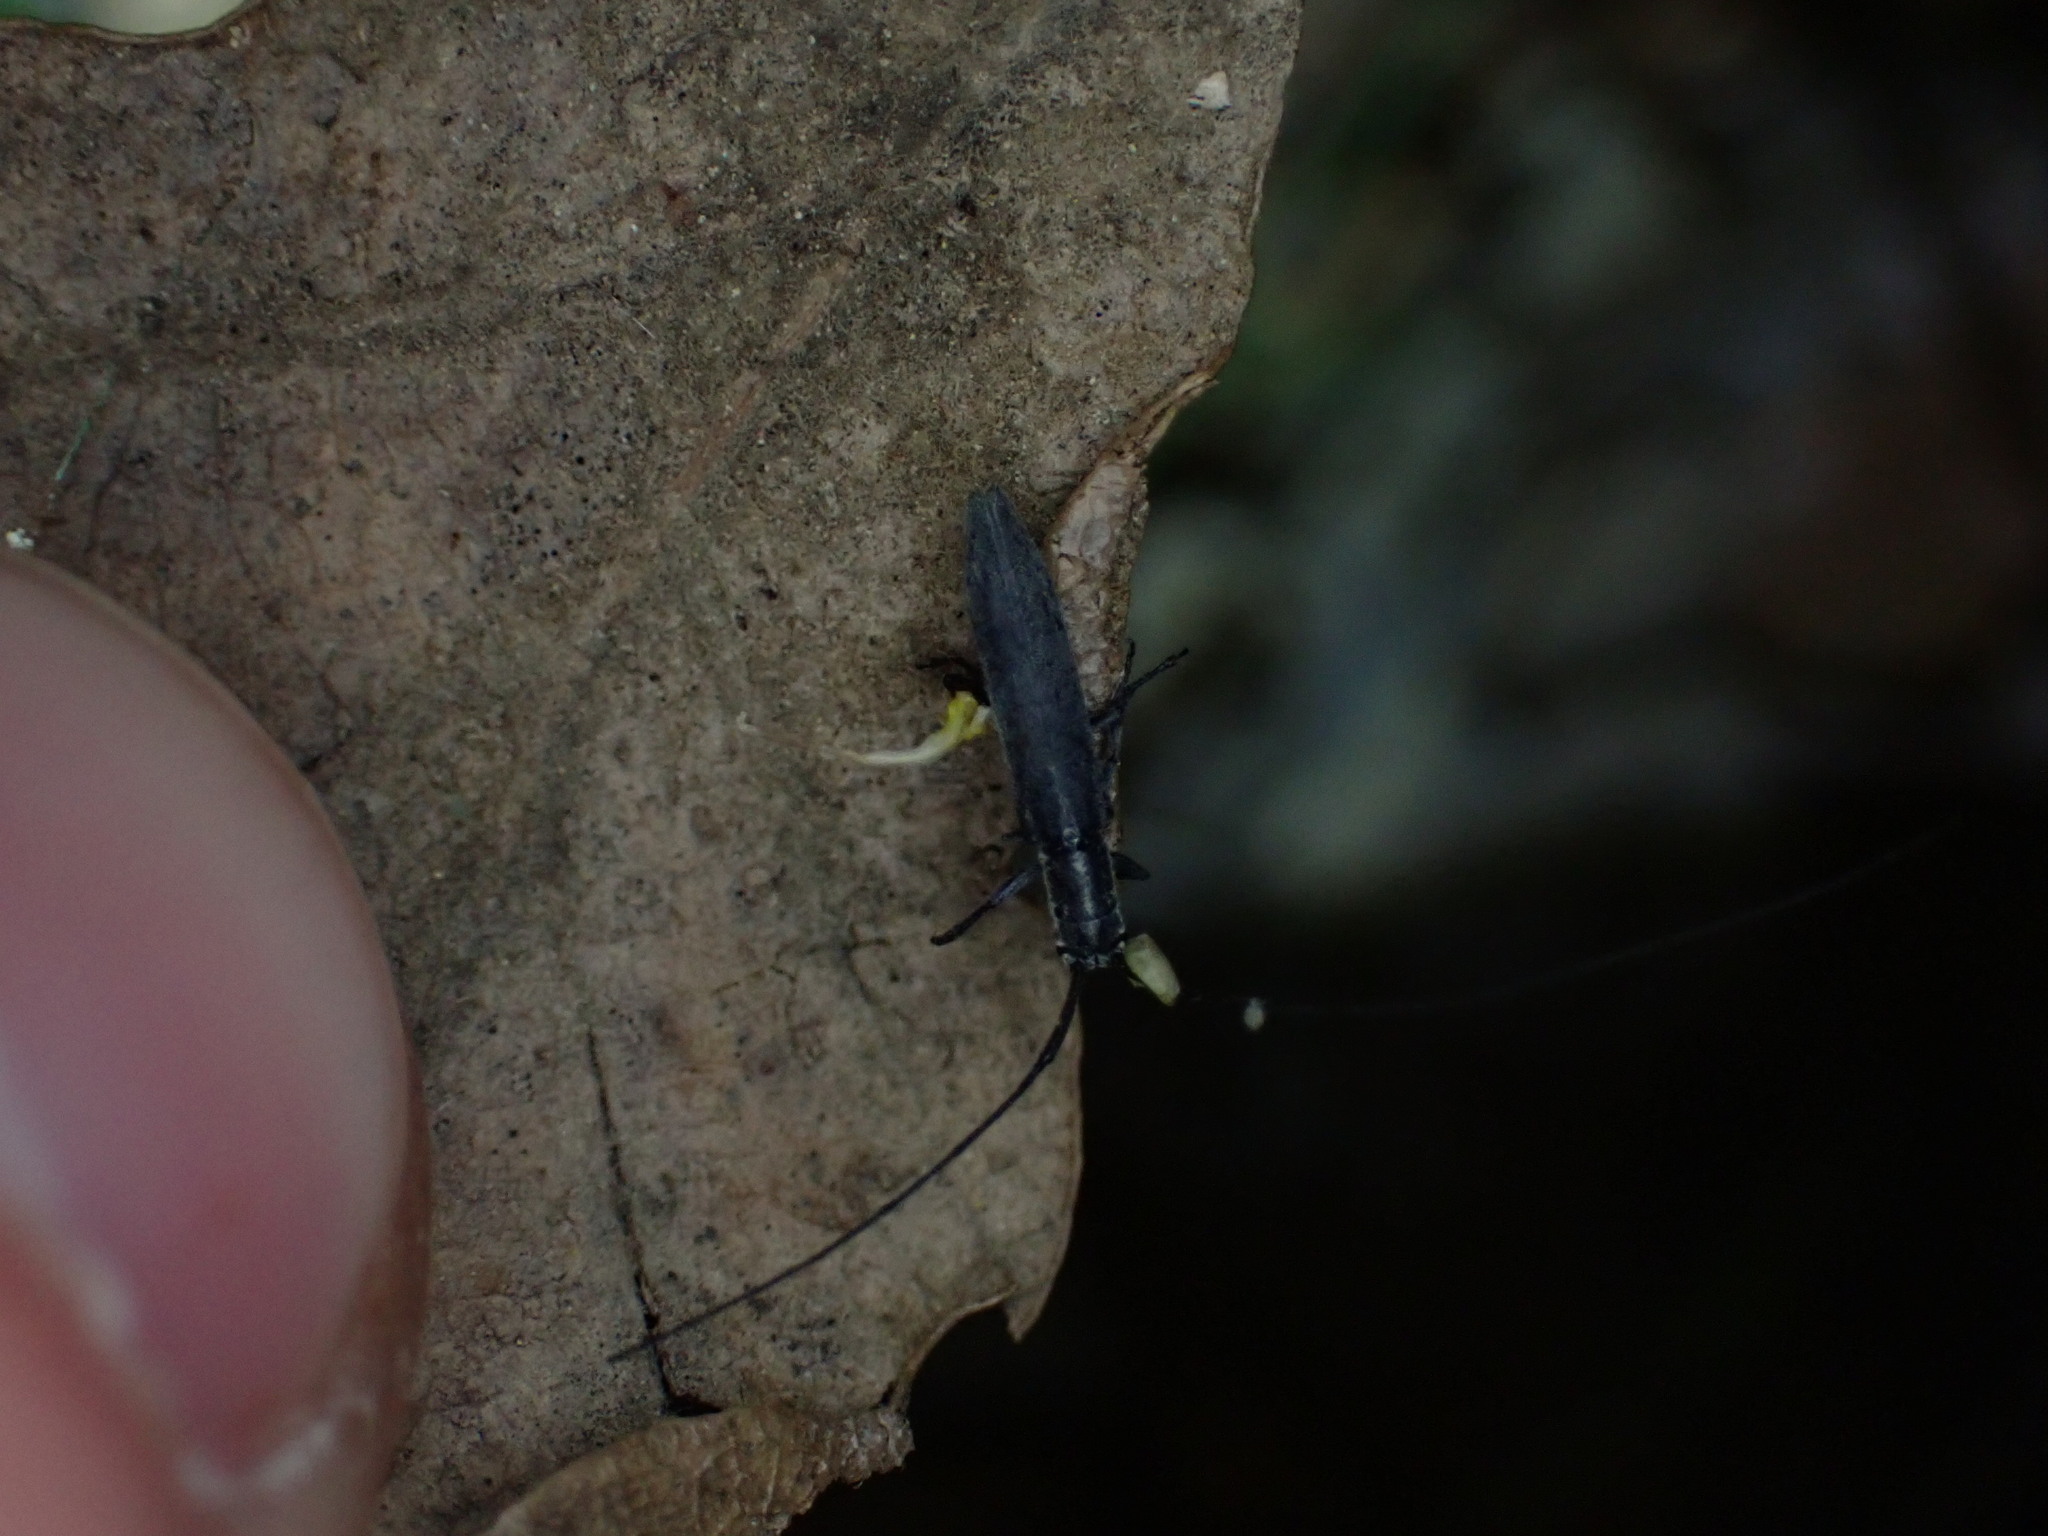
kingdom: Animalia
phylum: Arthropoda
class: Insecta
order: Coleoptera
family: Cerambycidae
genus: Calamobius
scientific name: Calamobius filum
